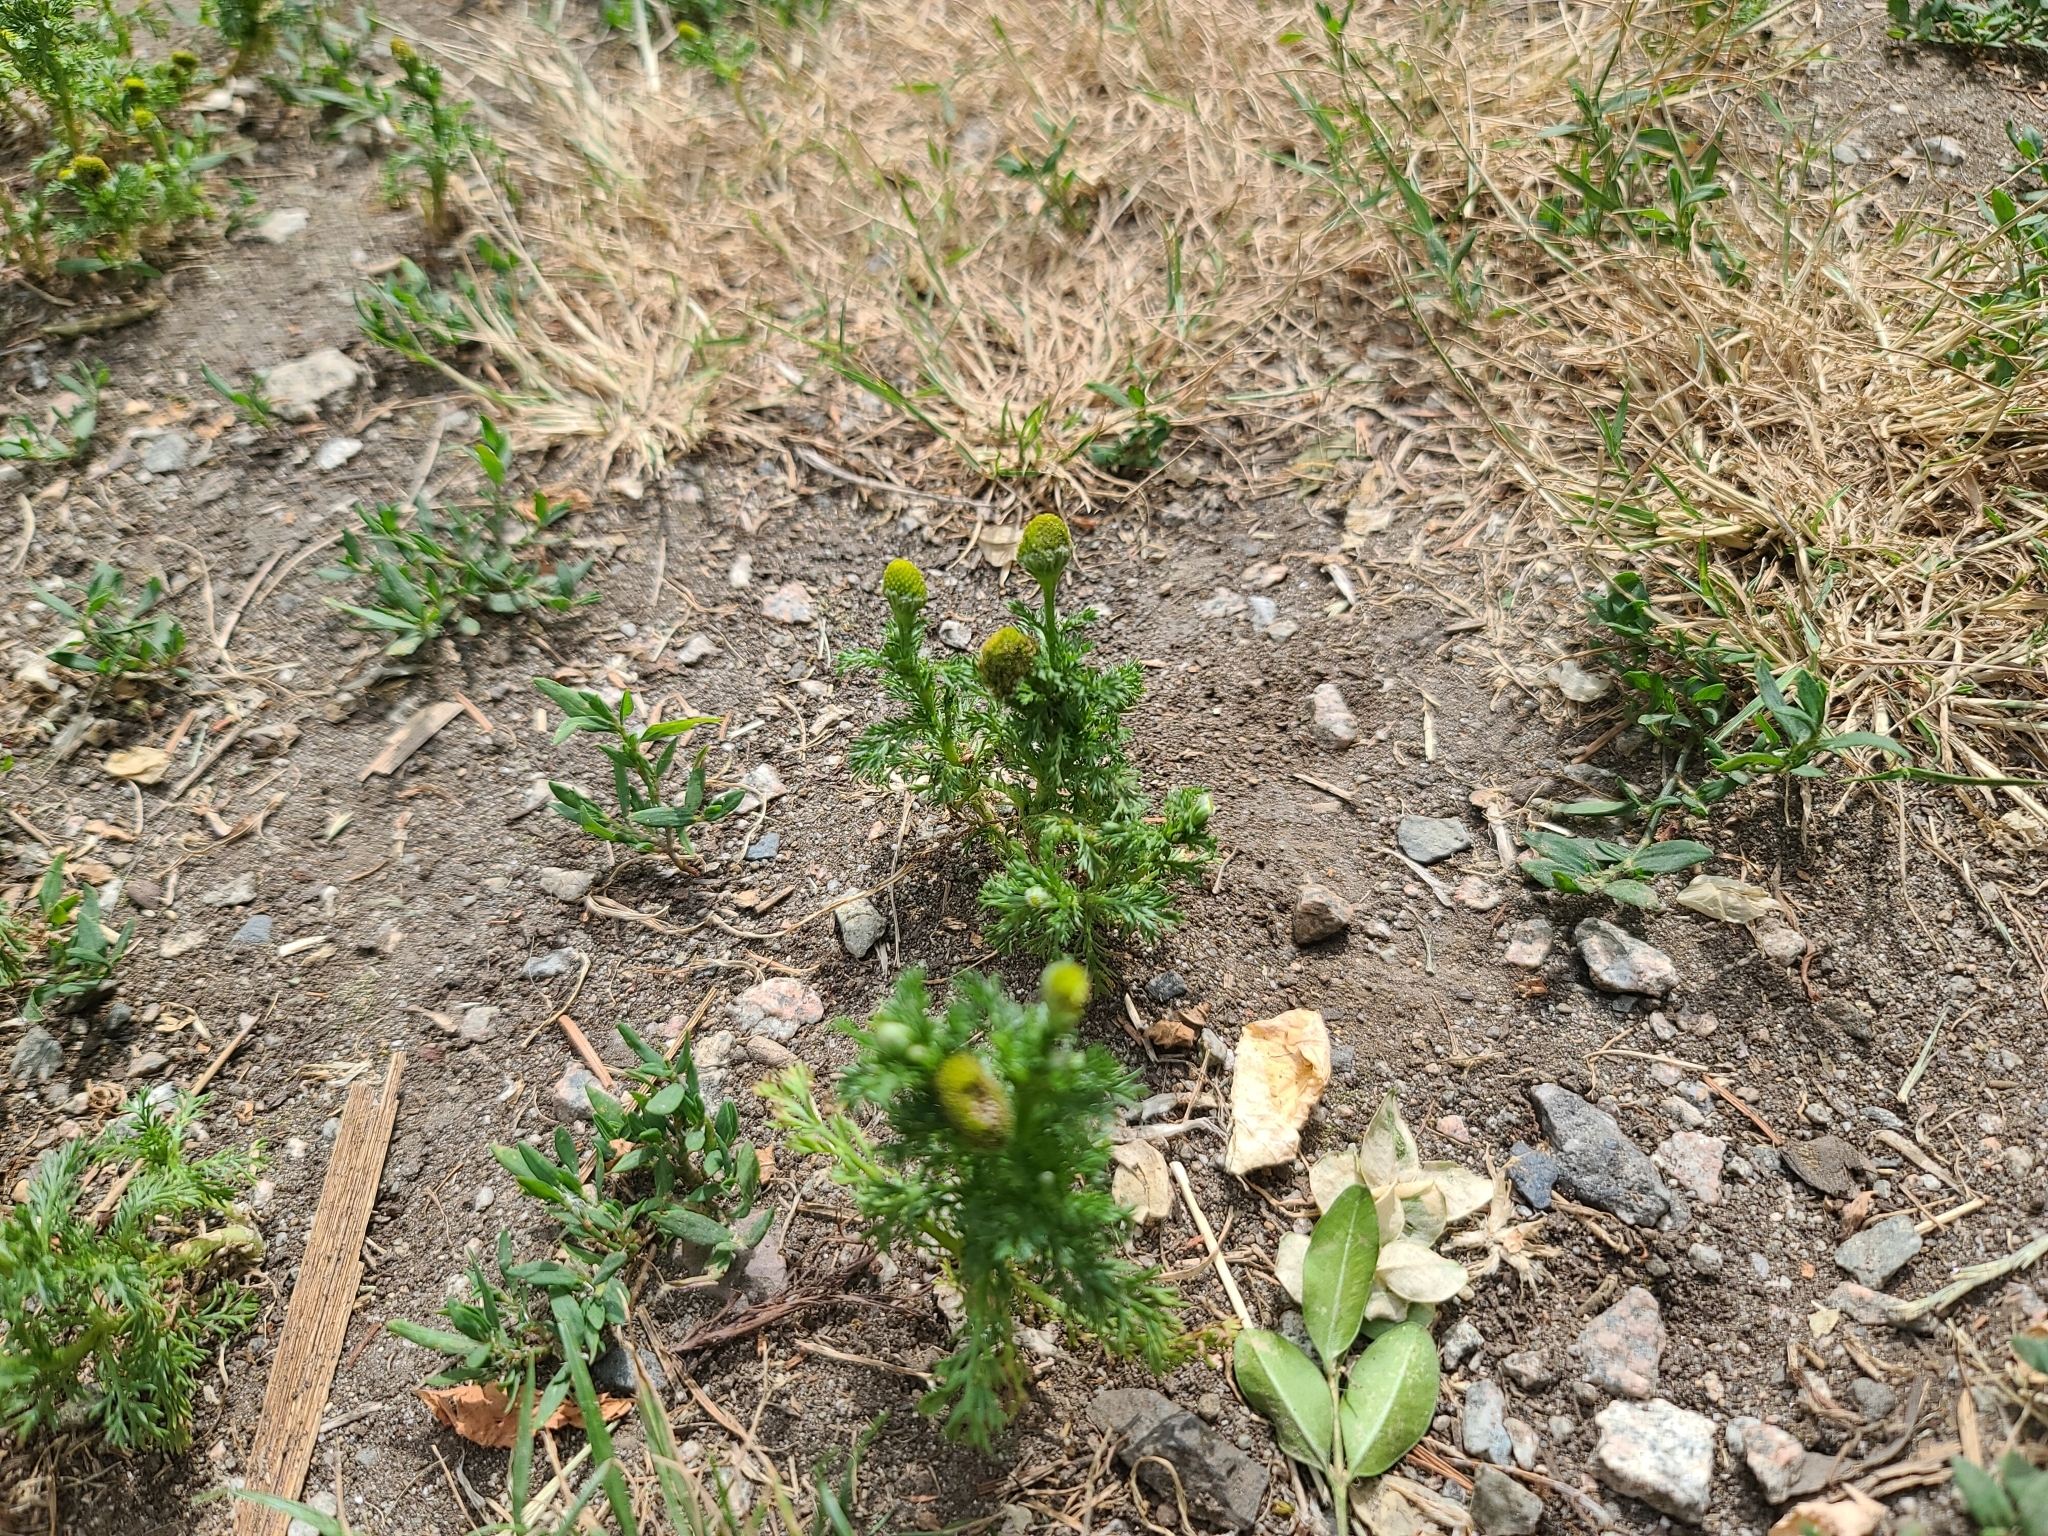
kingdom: Plantae
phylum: Tracheophyta
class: Magnoliopsida
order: Asterales
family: Asteraceae
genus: Matricaria
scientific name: Matricaria discoidea
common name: Disc mayweed
